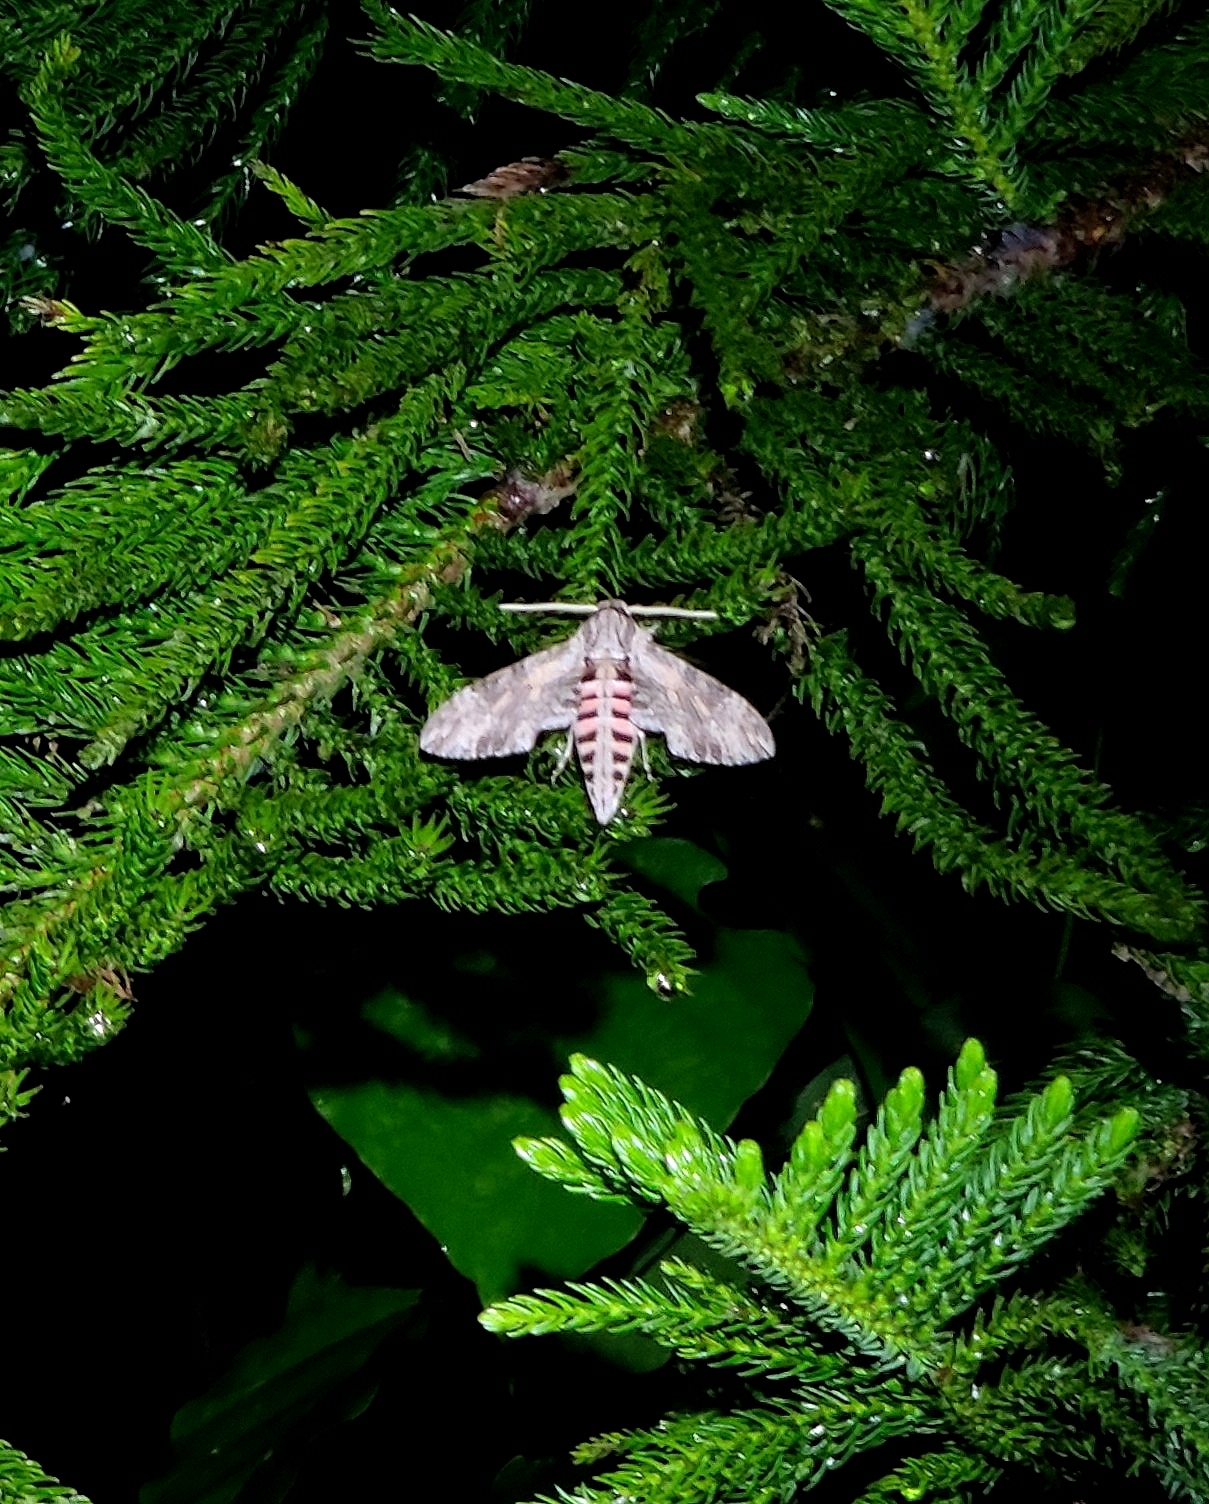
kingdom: Animalia
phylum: Arthropoda
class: Insecta
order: Lepidoptera
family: Sphingidae
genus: Agrius
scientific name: Agrius convolvuli
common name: Convolvulus hawkmoth
